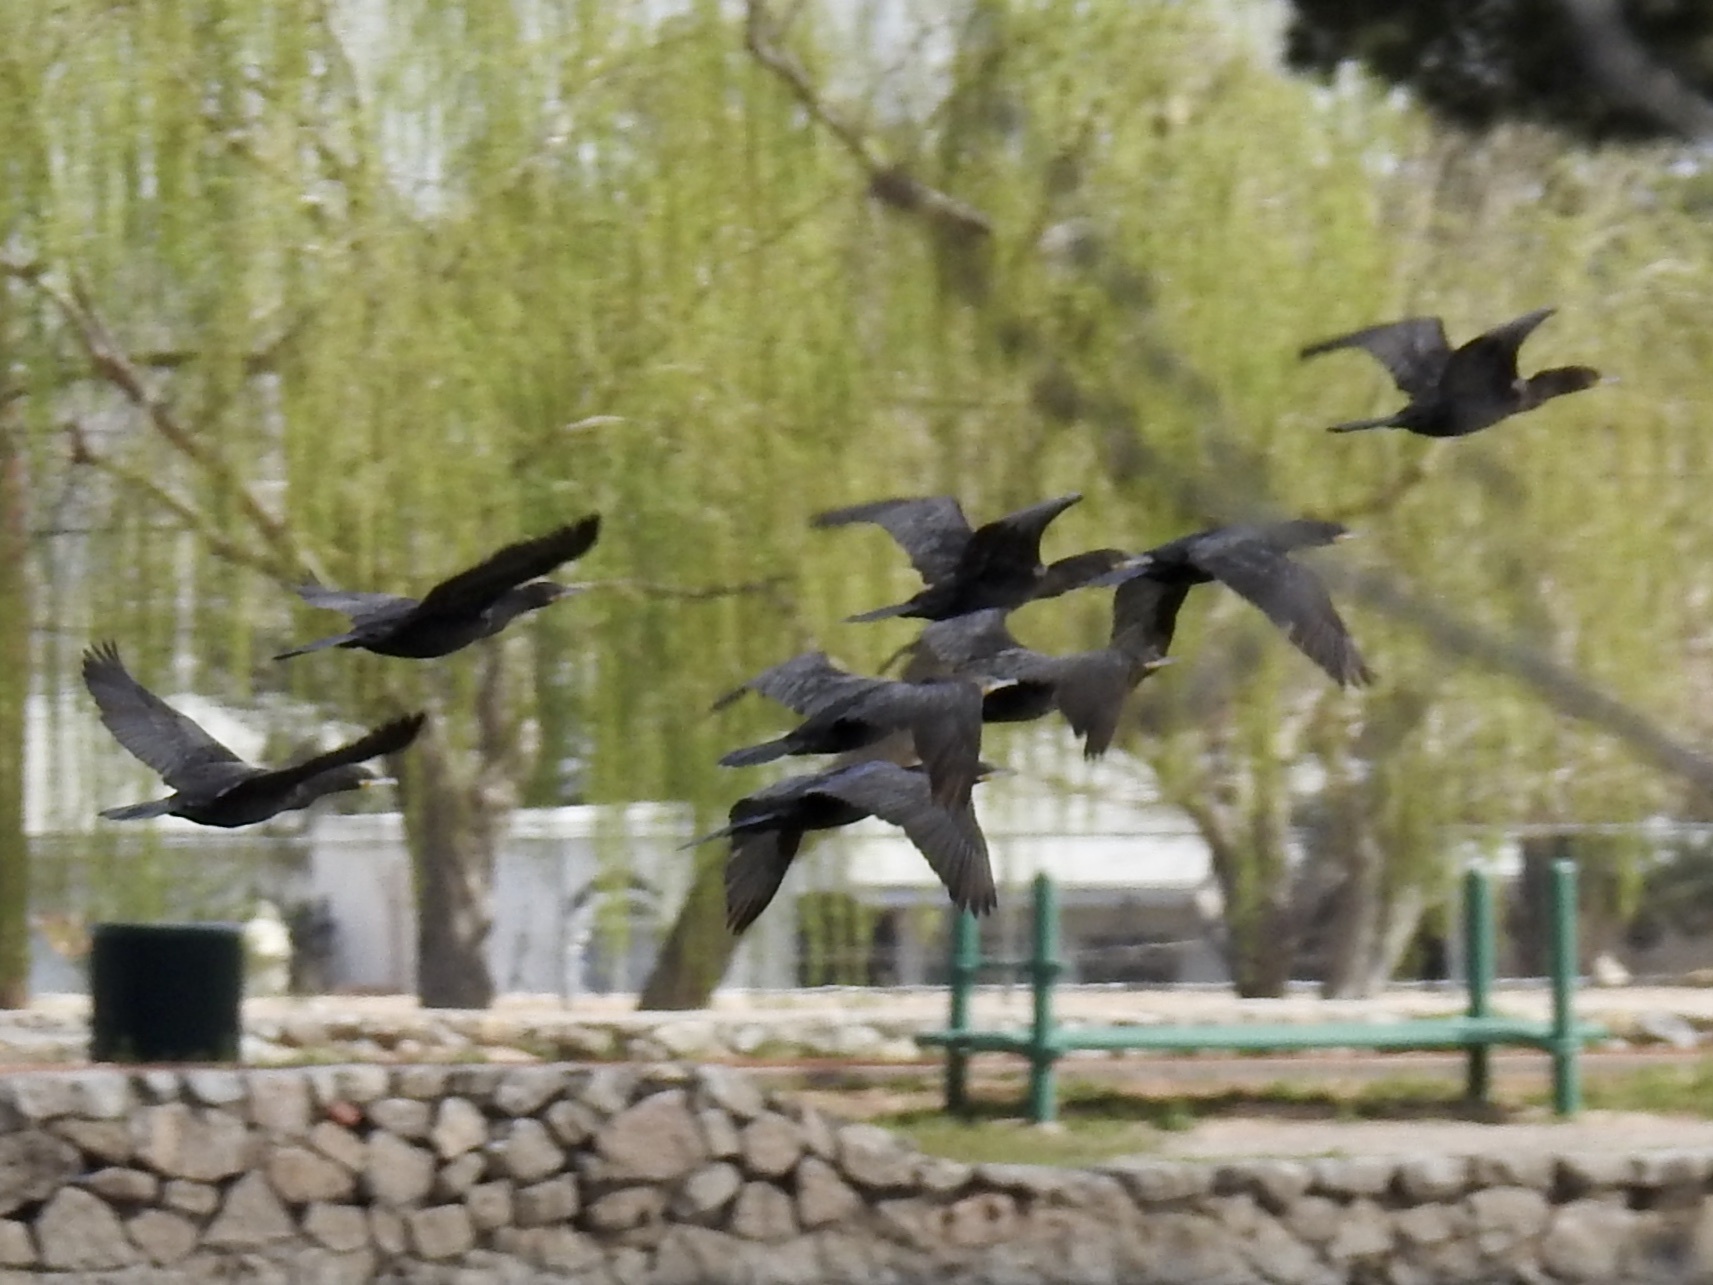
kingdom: Animalia
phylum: Chordata
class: Aves
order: Suliformes
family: Phalacrocoracidae
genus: Phalacrocorax
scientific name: Phalacrocorax brasilianus
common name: Neotropic cormorant
